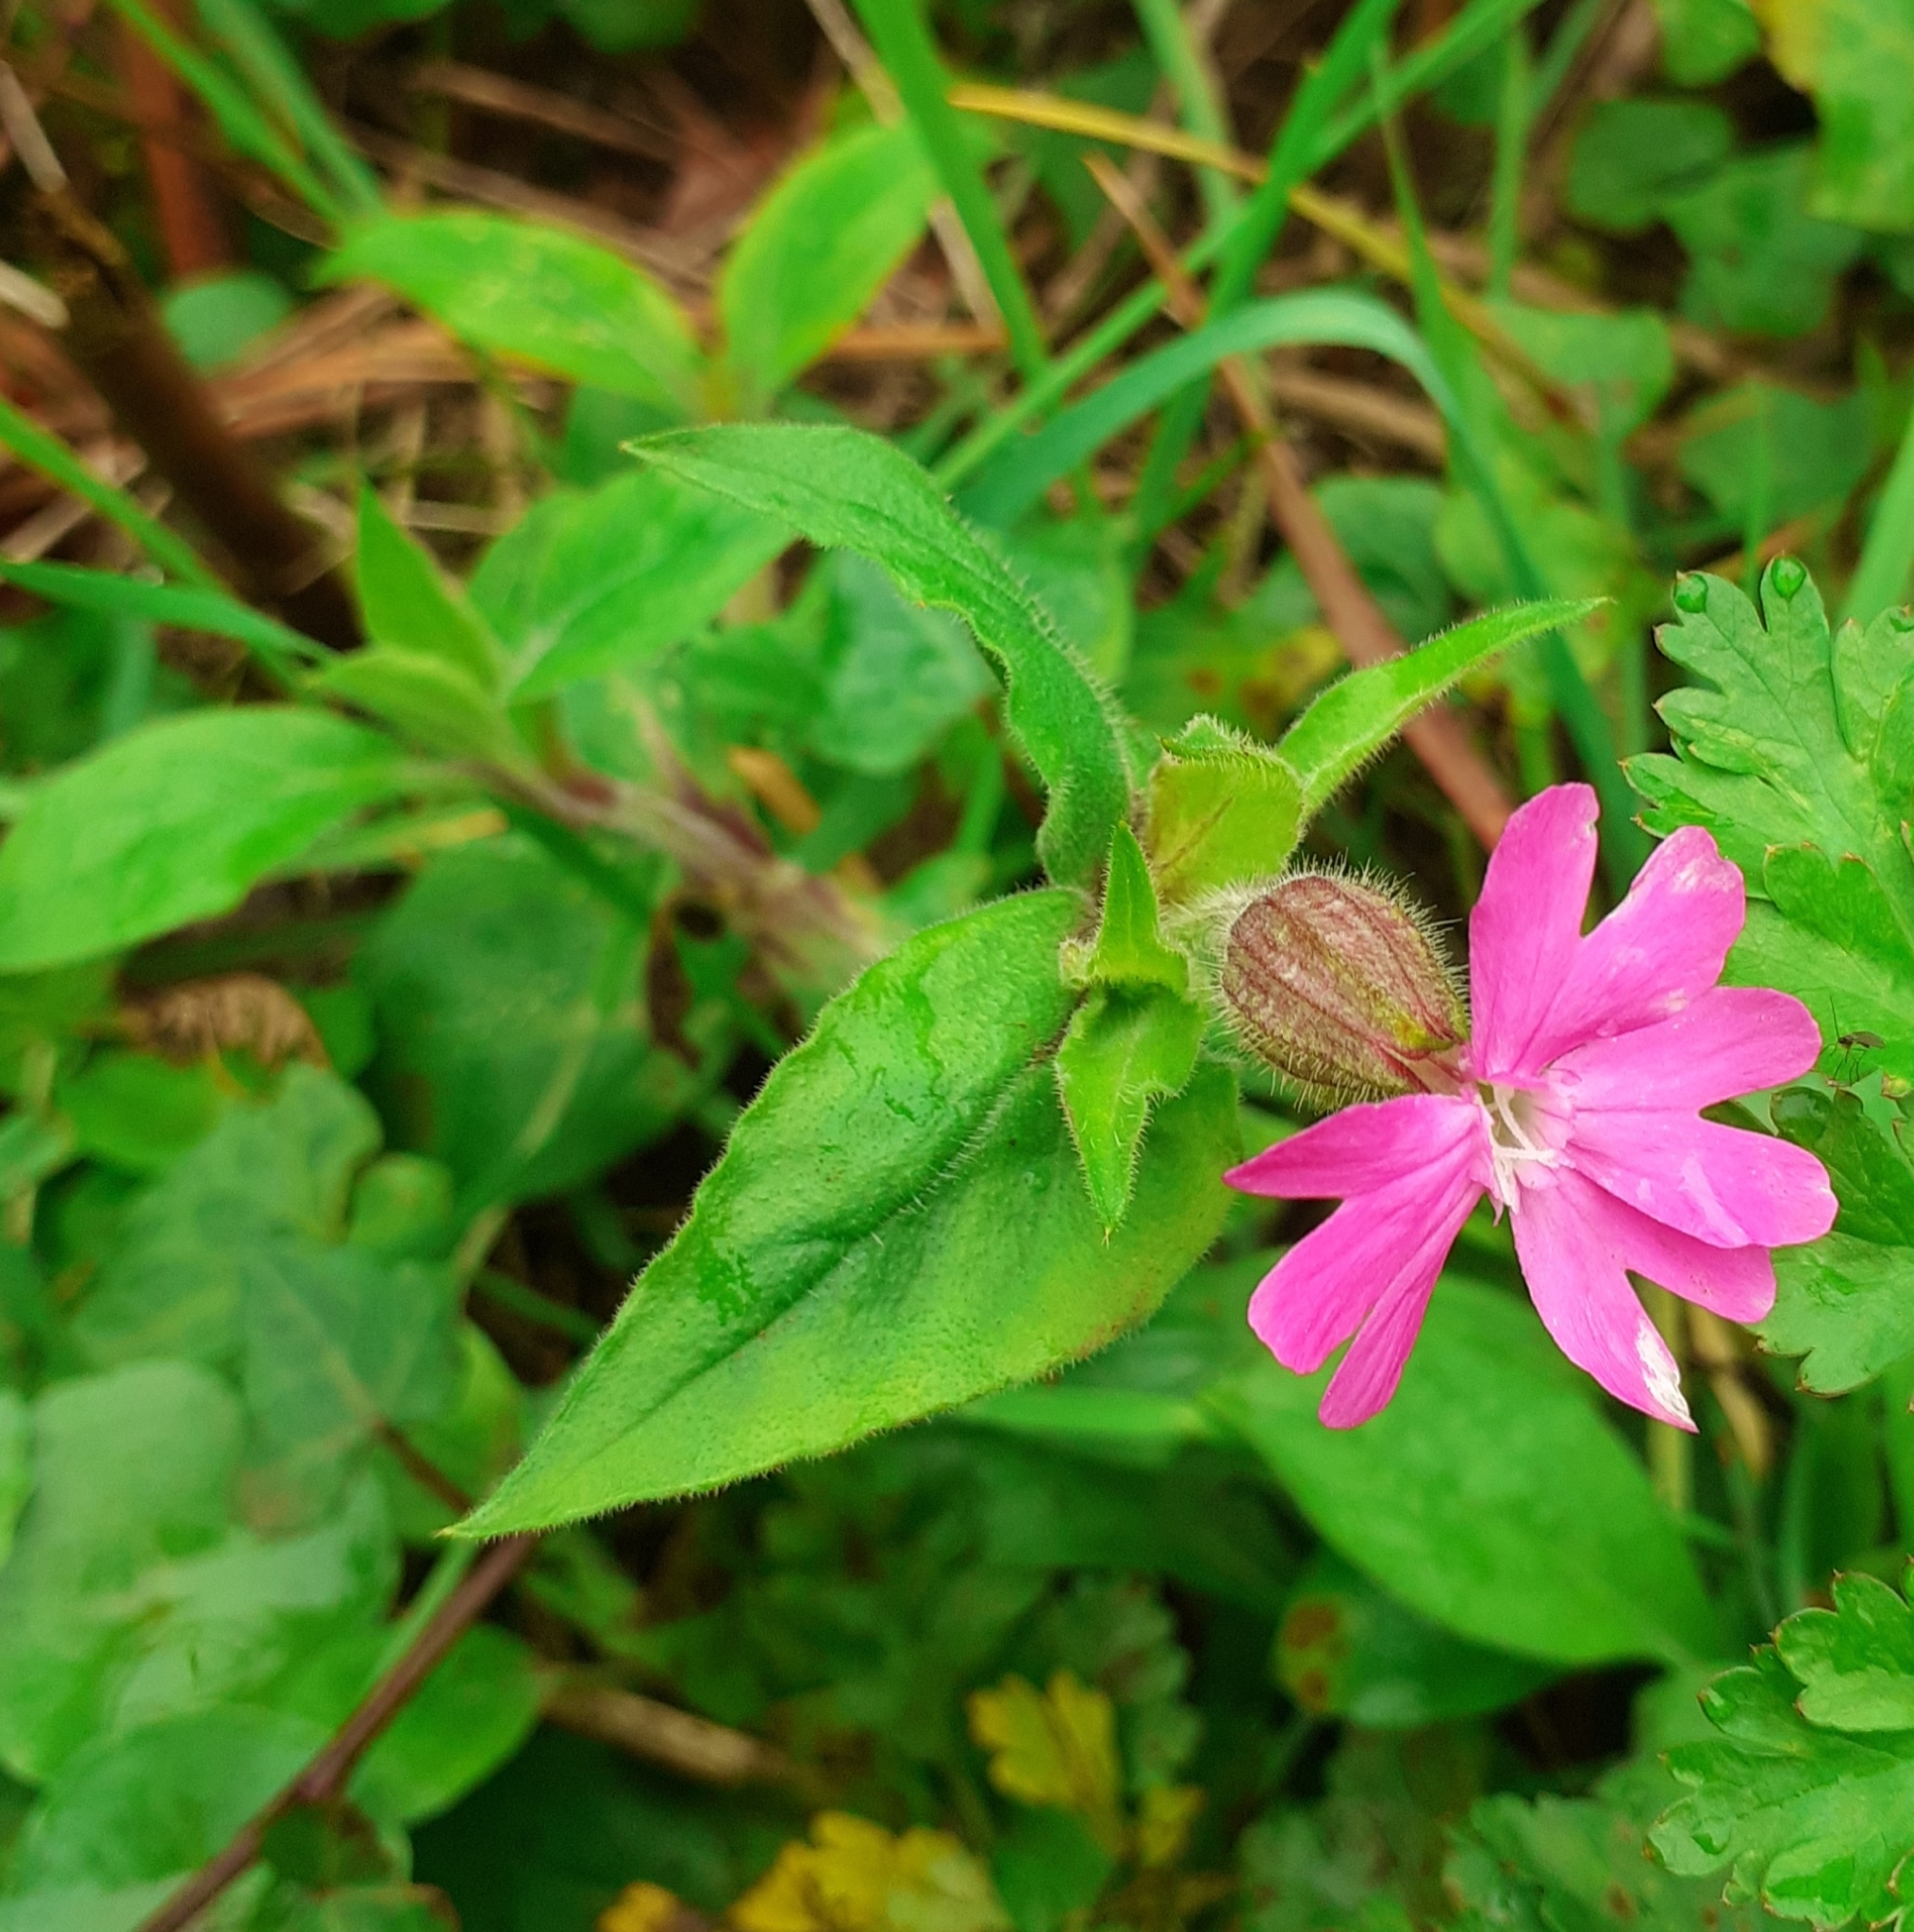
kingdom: Plantae
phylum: Tracheophyta
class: Magnoliopsida
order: Caryophyllales
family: Caryophyllaceae
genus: Silene
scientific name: Silene dioica
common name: Red campion
